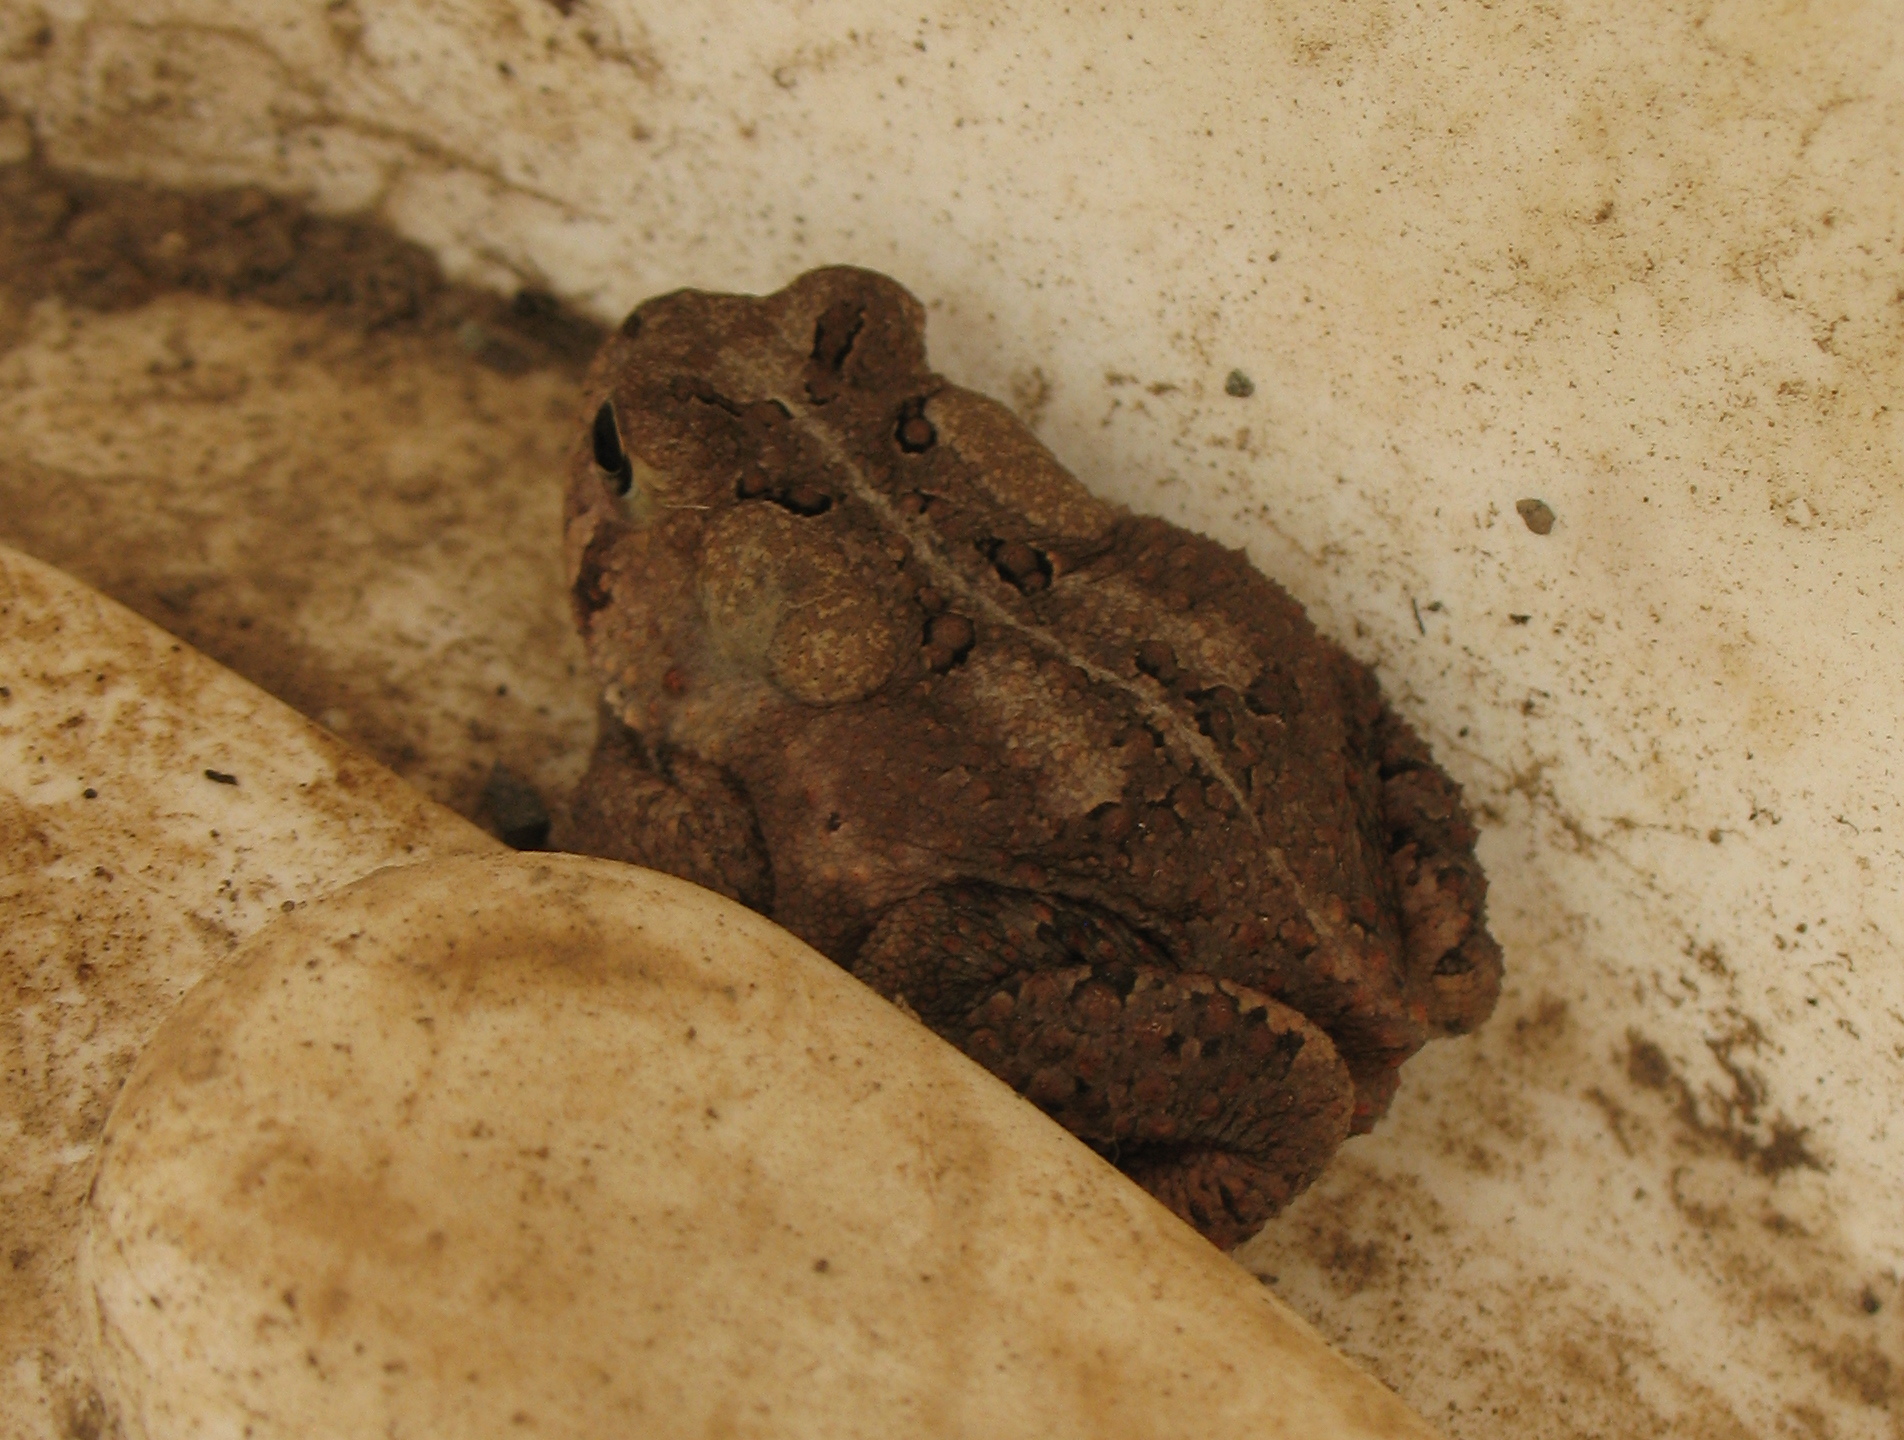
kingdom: Animalia
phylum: Chordata
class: Amphibia
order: Anura
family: Bufonidae
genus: Anaxyrus
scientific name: Anaxyrus americanus
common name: American toad
